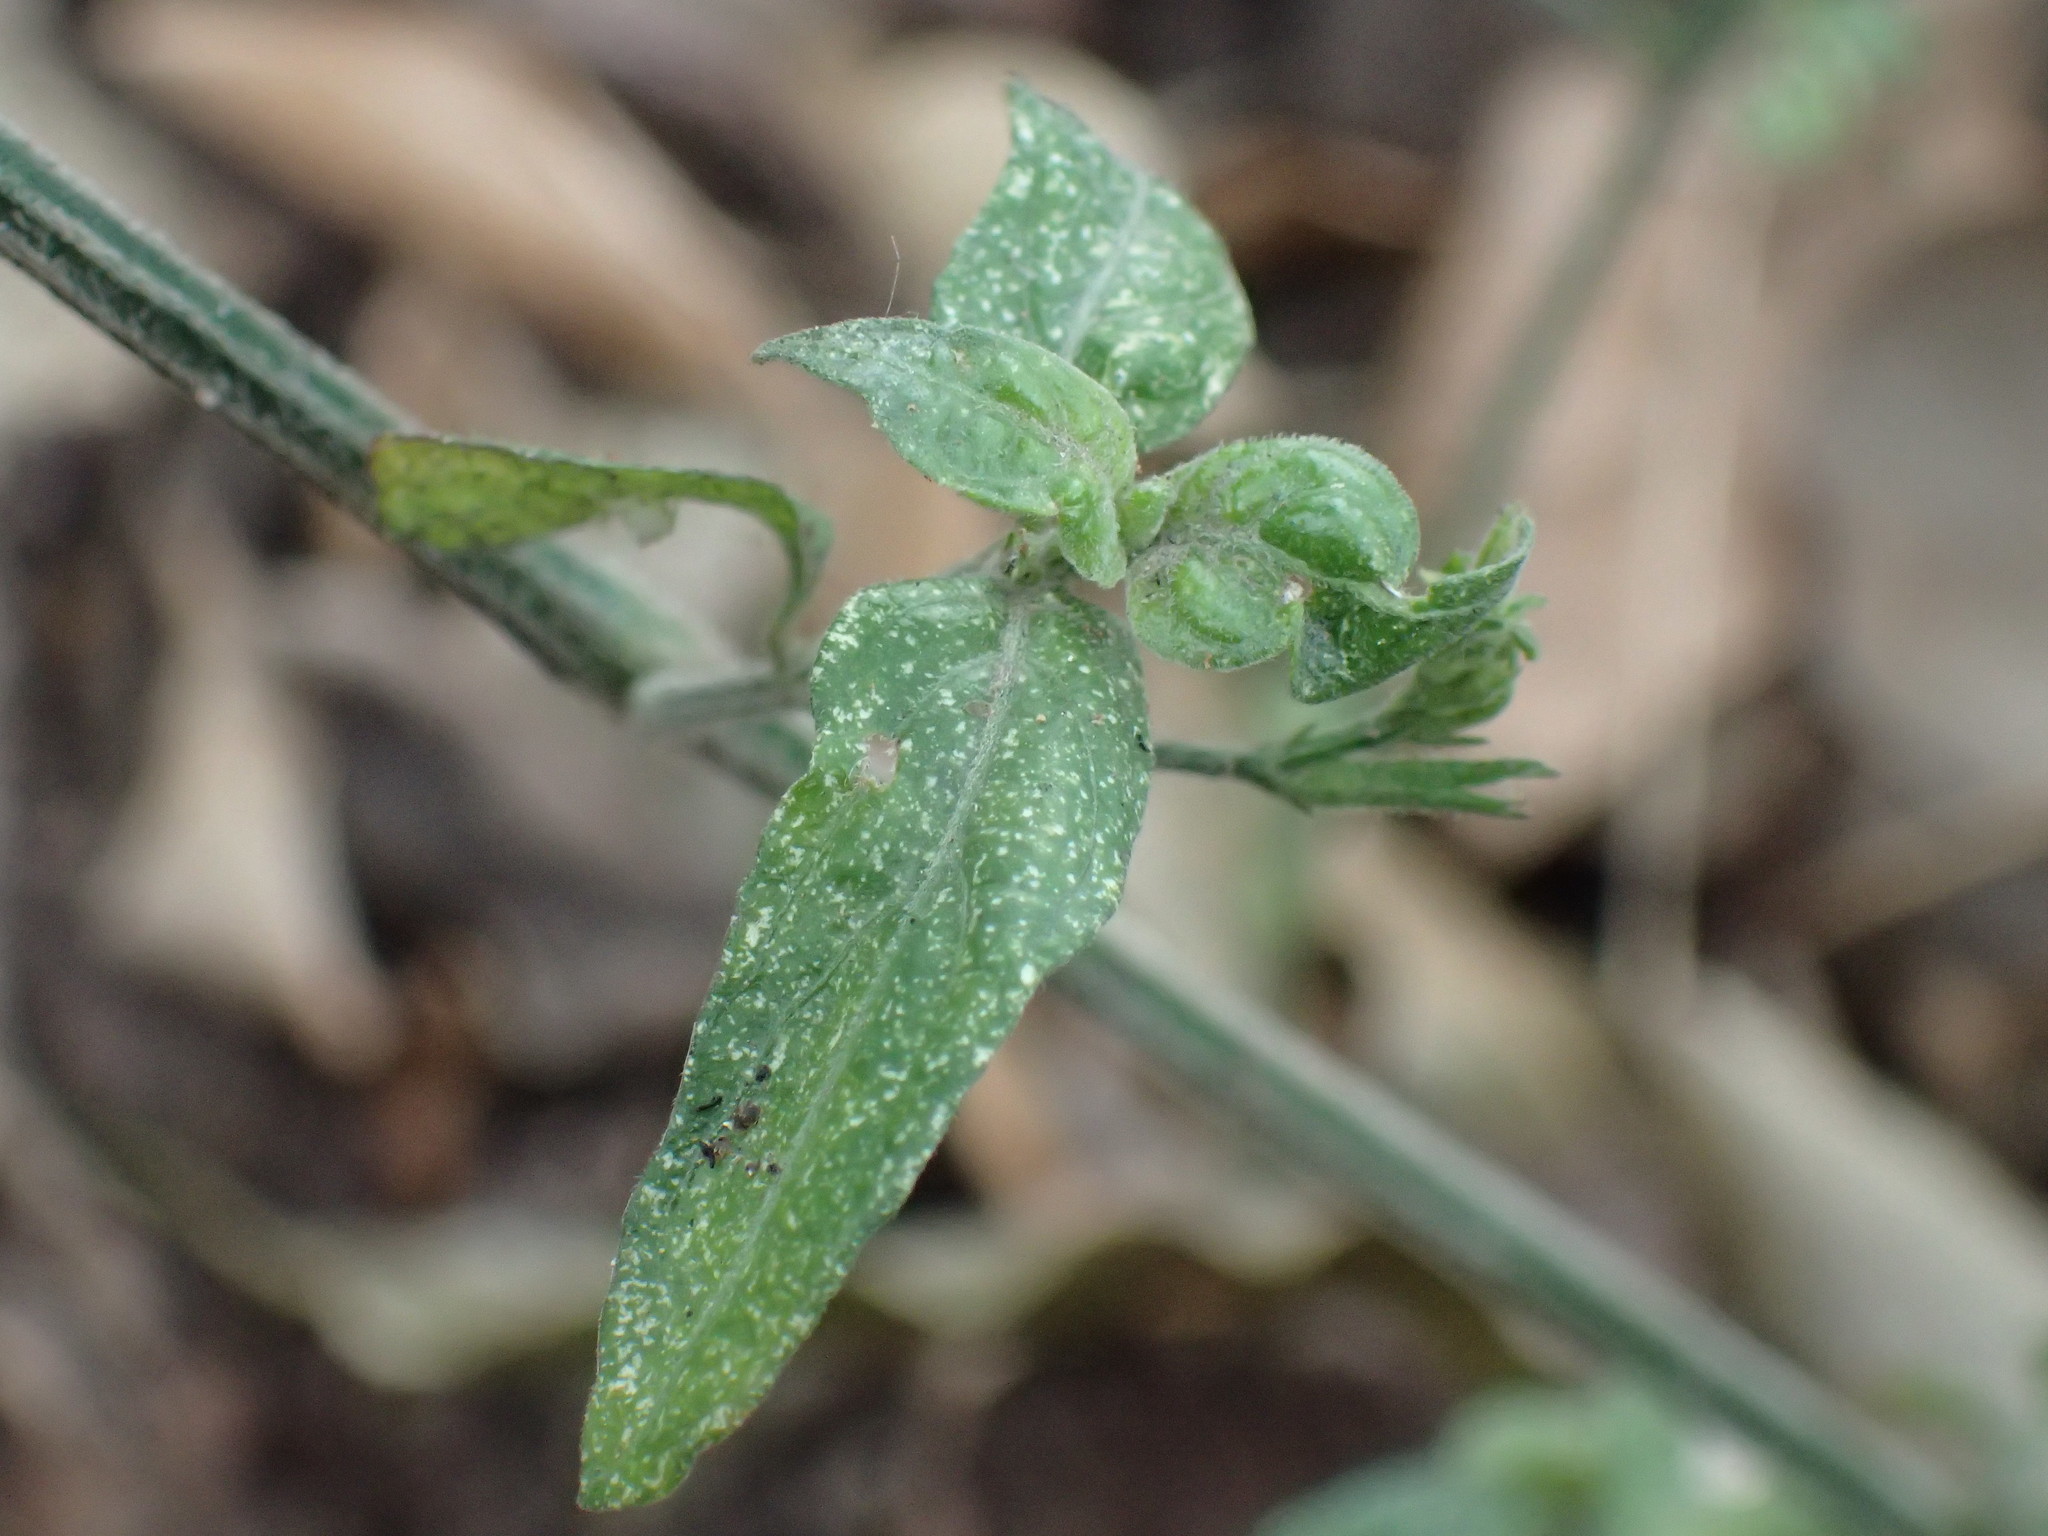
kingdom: Plantae
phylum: Tracheophyta
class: Magnoliopsida
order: Lamiales
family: Acanthaceae
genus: Rhinacanthus
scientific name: Rhinacanthus latilabiatus
